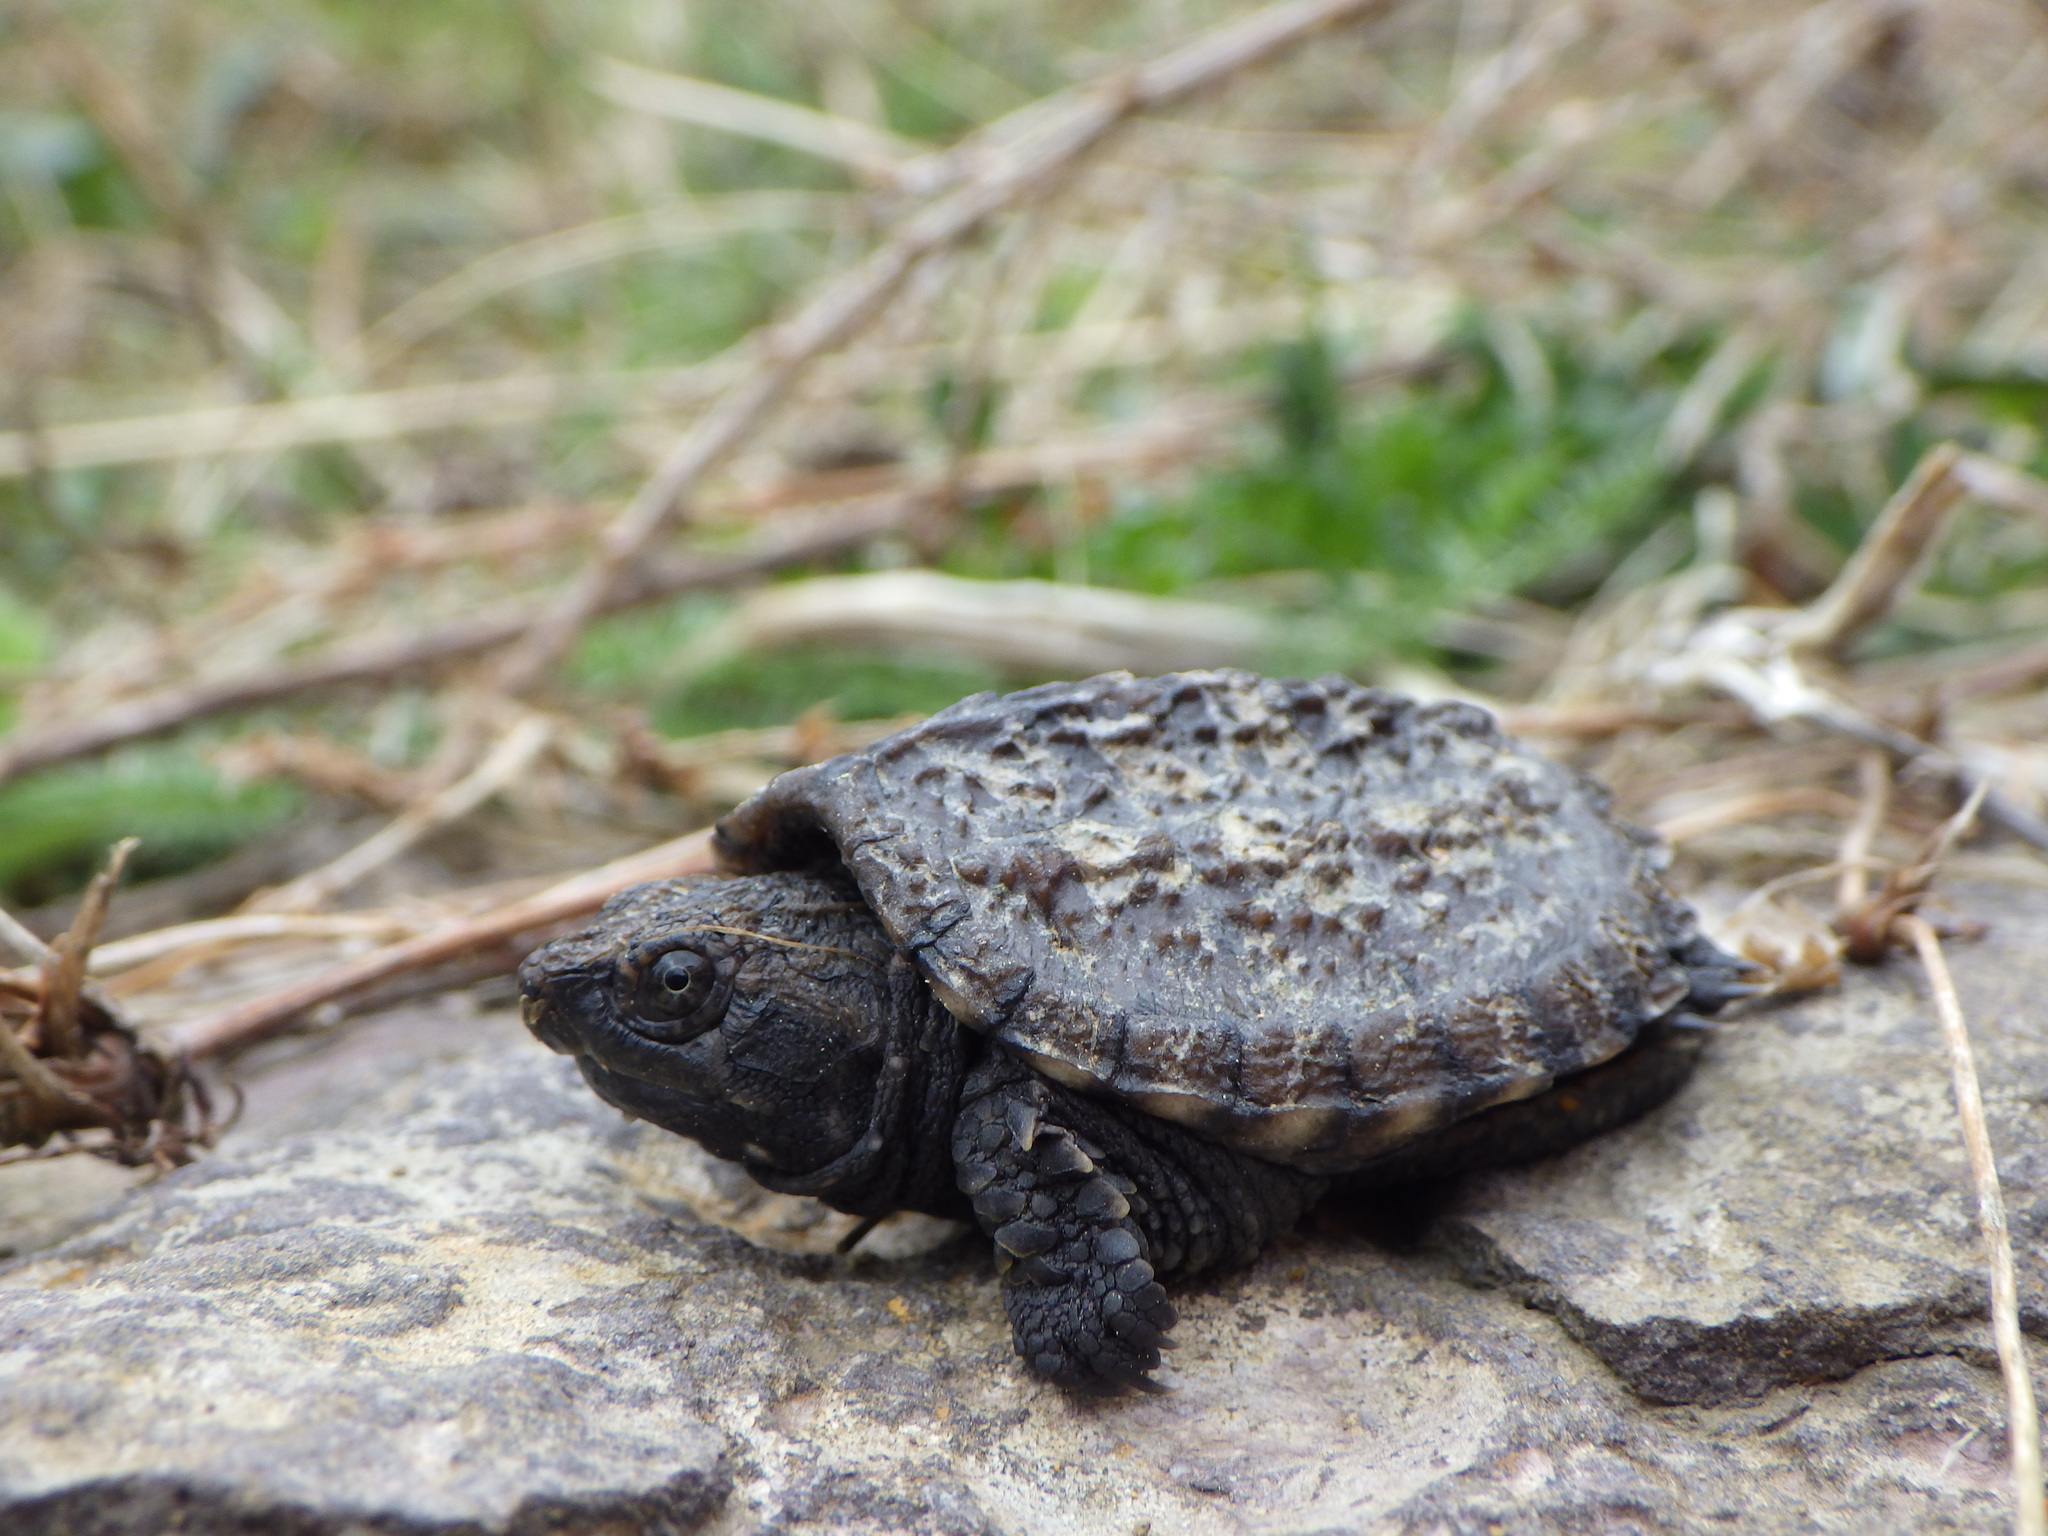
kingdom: Animalia
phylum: Chordata
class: Testudines
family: Chelydridae
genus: Chelydra
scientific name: Chelydra serpentina
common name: Common snapping turtle
